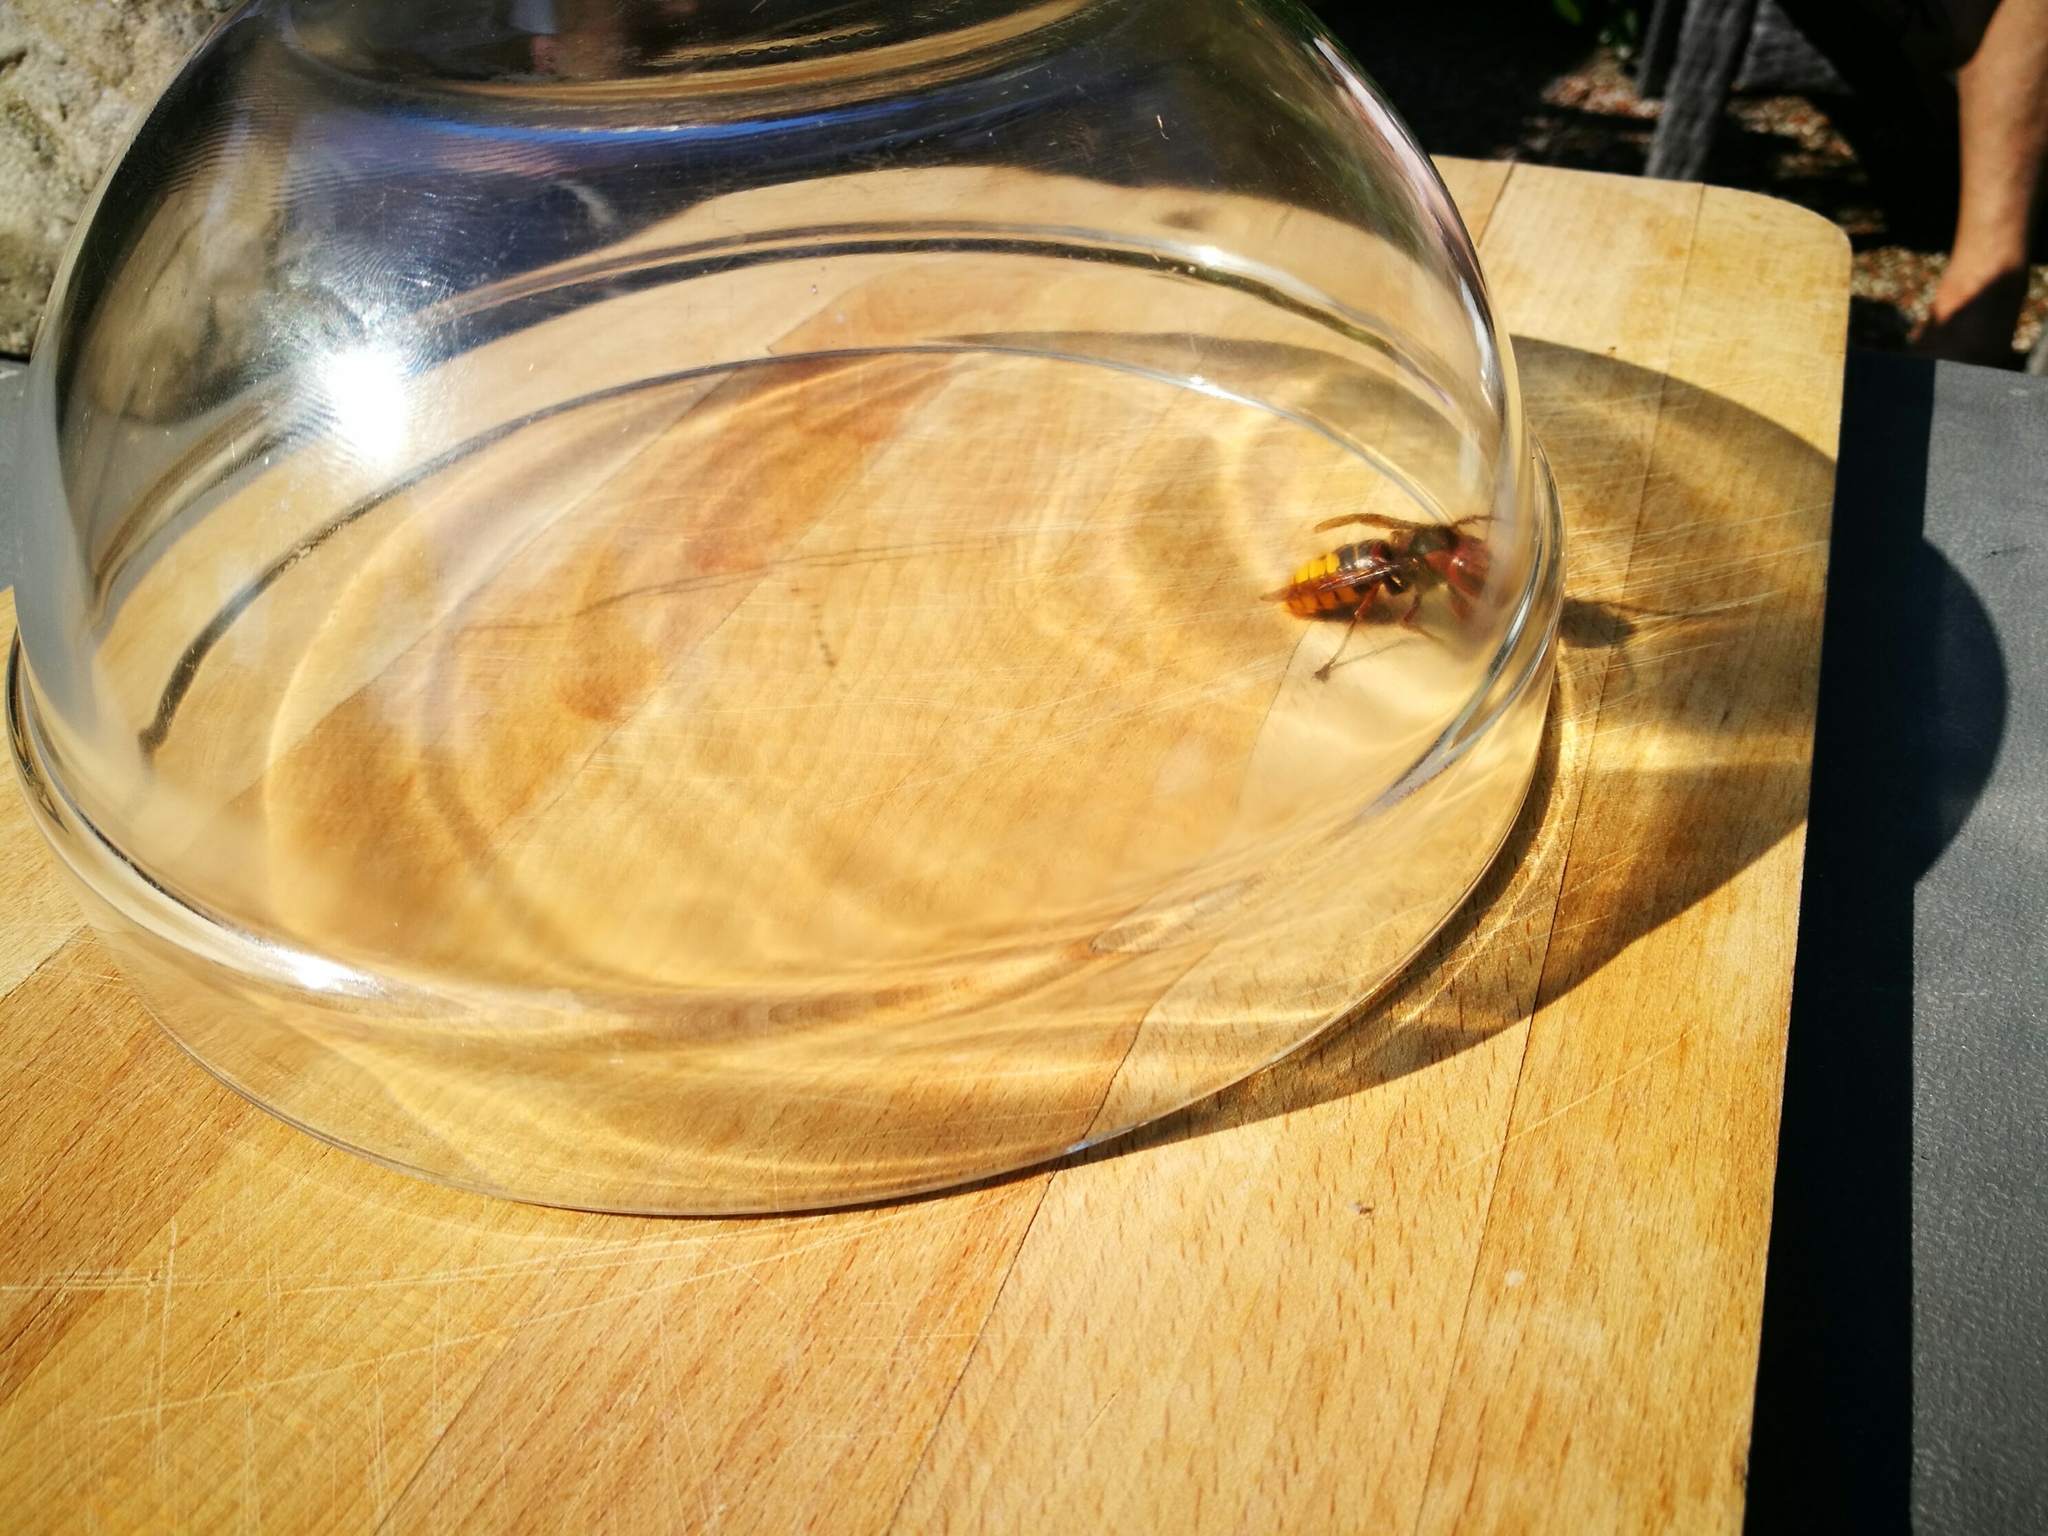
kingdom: Animalia
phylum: Arthropoda
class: Insecta
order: Hymenoptera
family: Vespidae
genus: Vespa
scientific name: Vespa crabro
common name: Hornet
